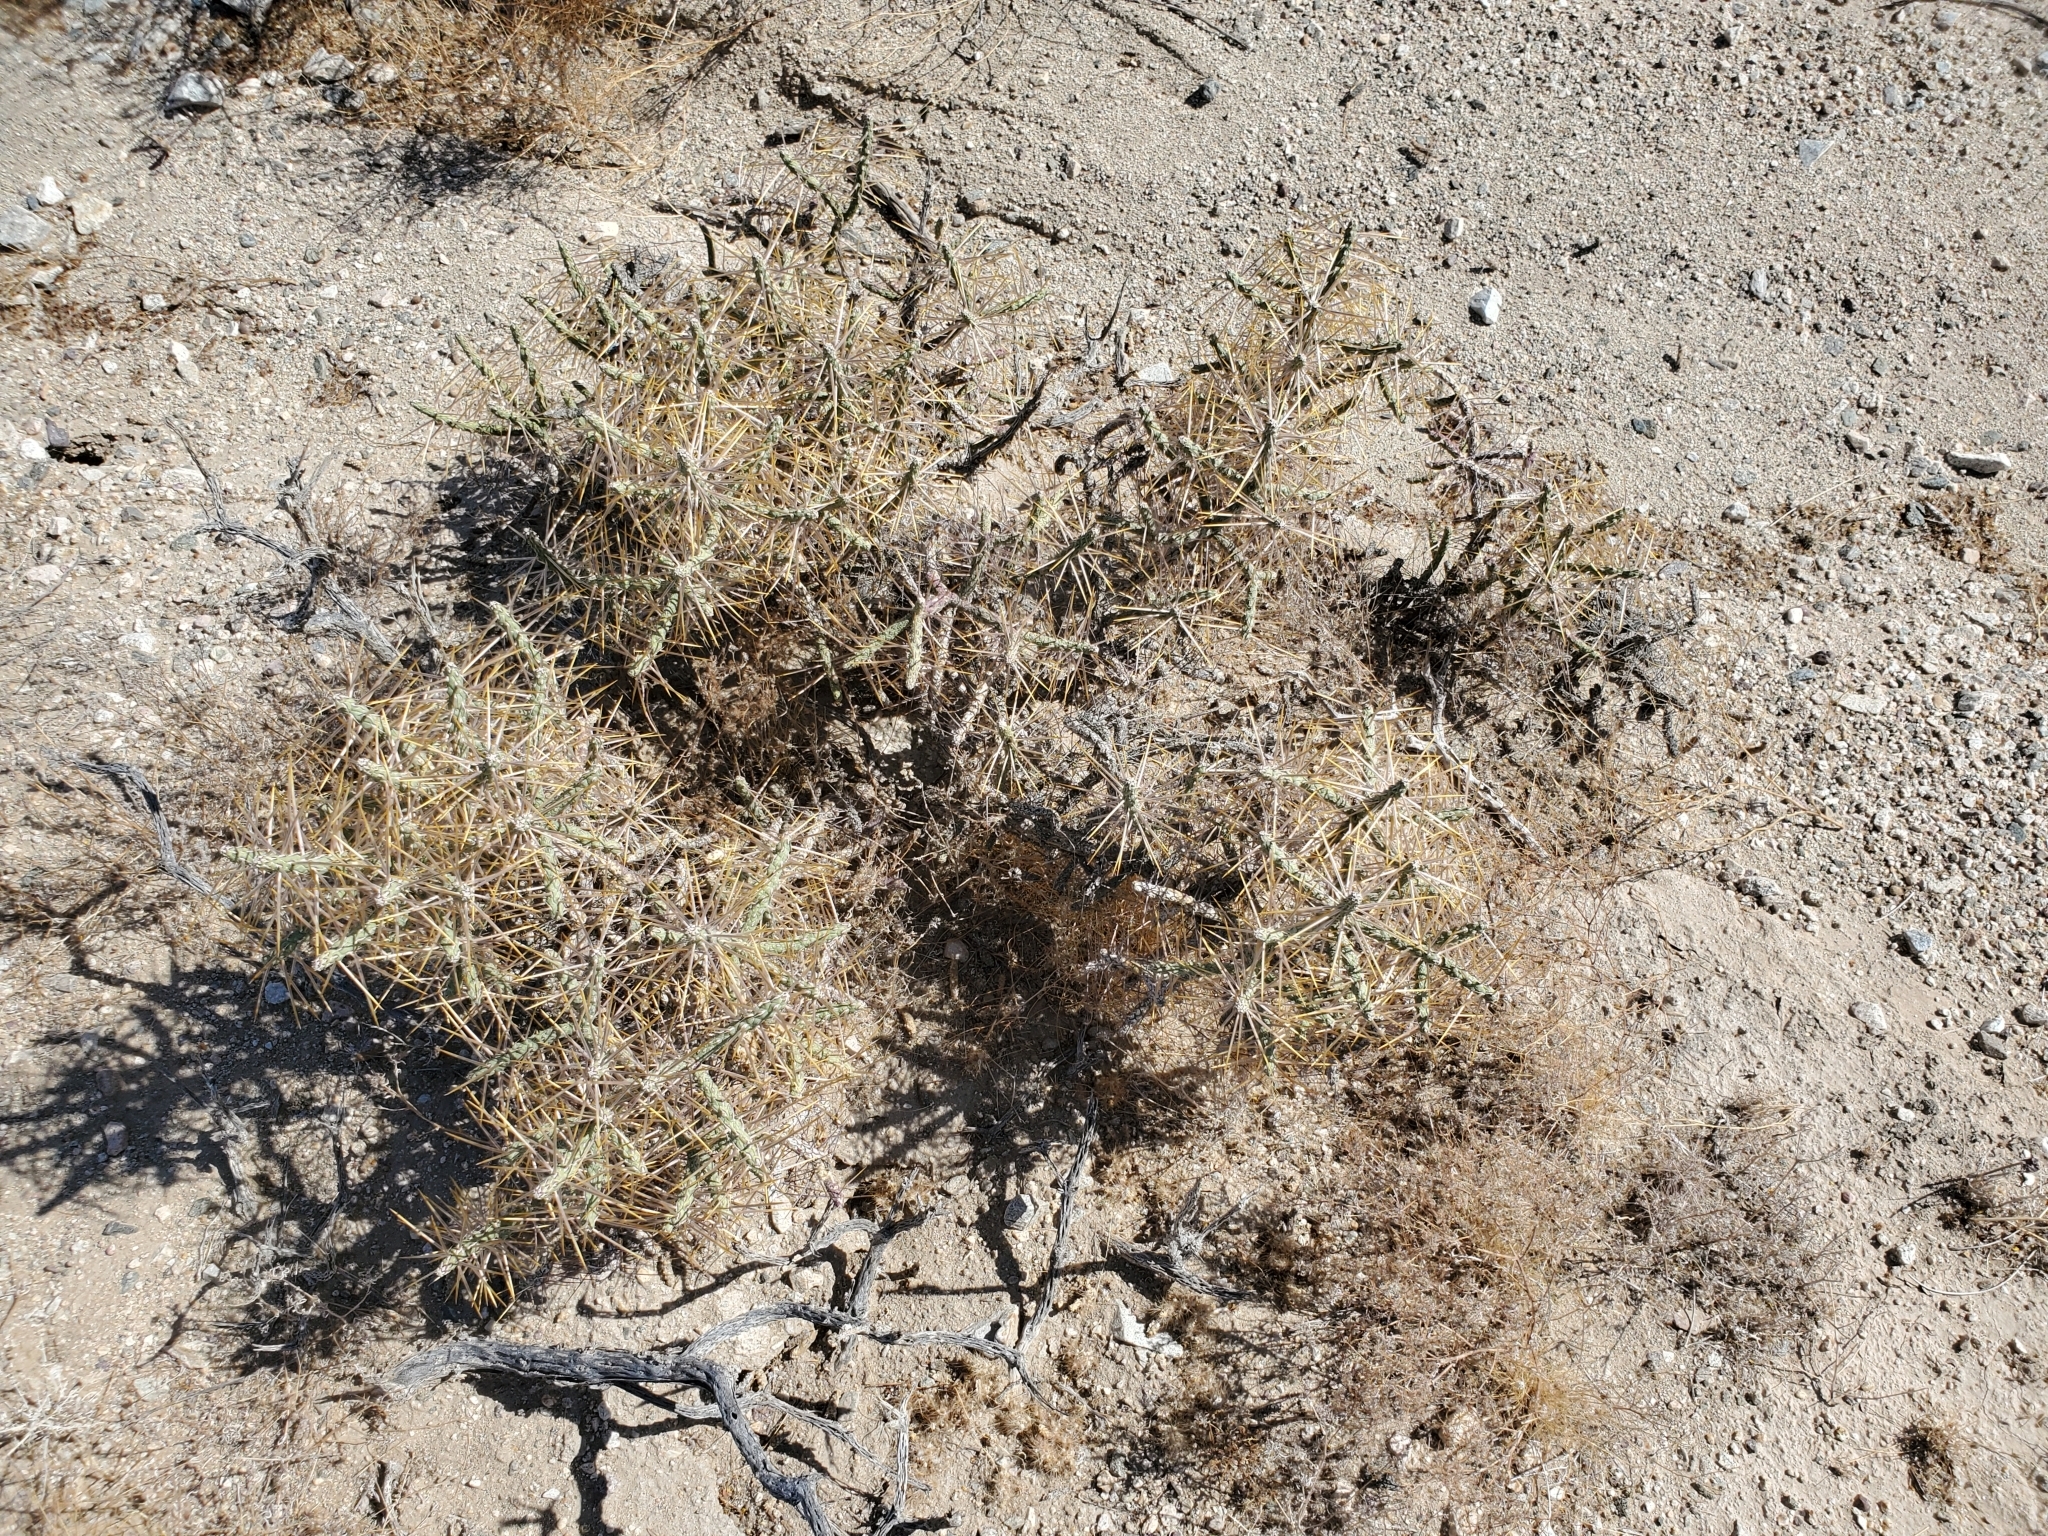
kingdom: Plantae
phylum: Tracheophyta
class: Magnoliopsida
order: Caryophyllales
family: Cactaceae
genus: Cylindropuntia
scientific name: Cylindropuntia ramosissima
